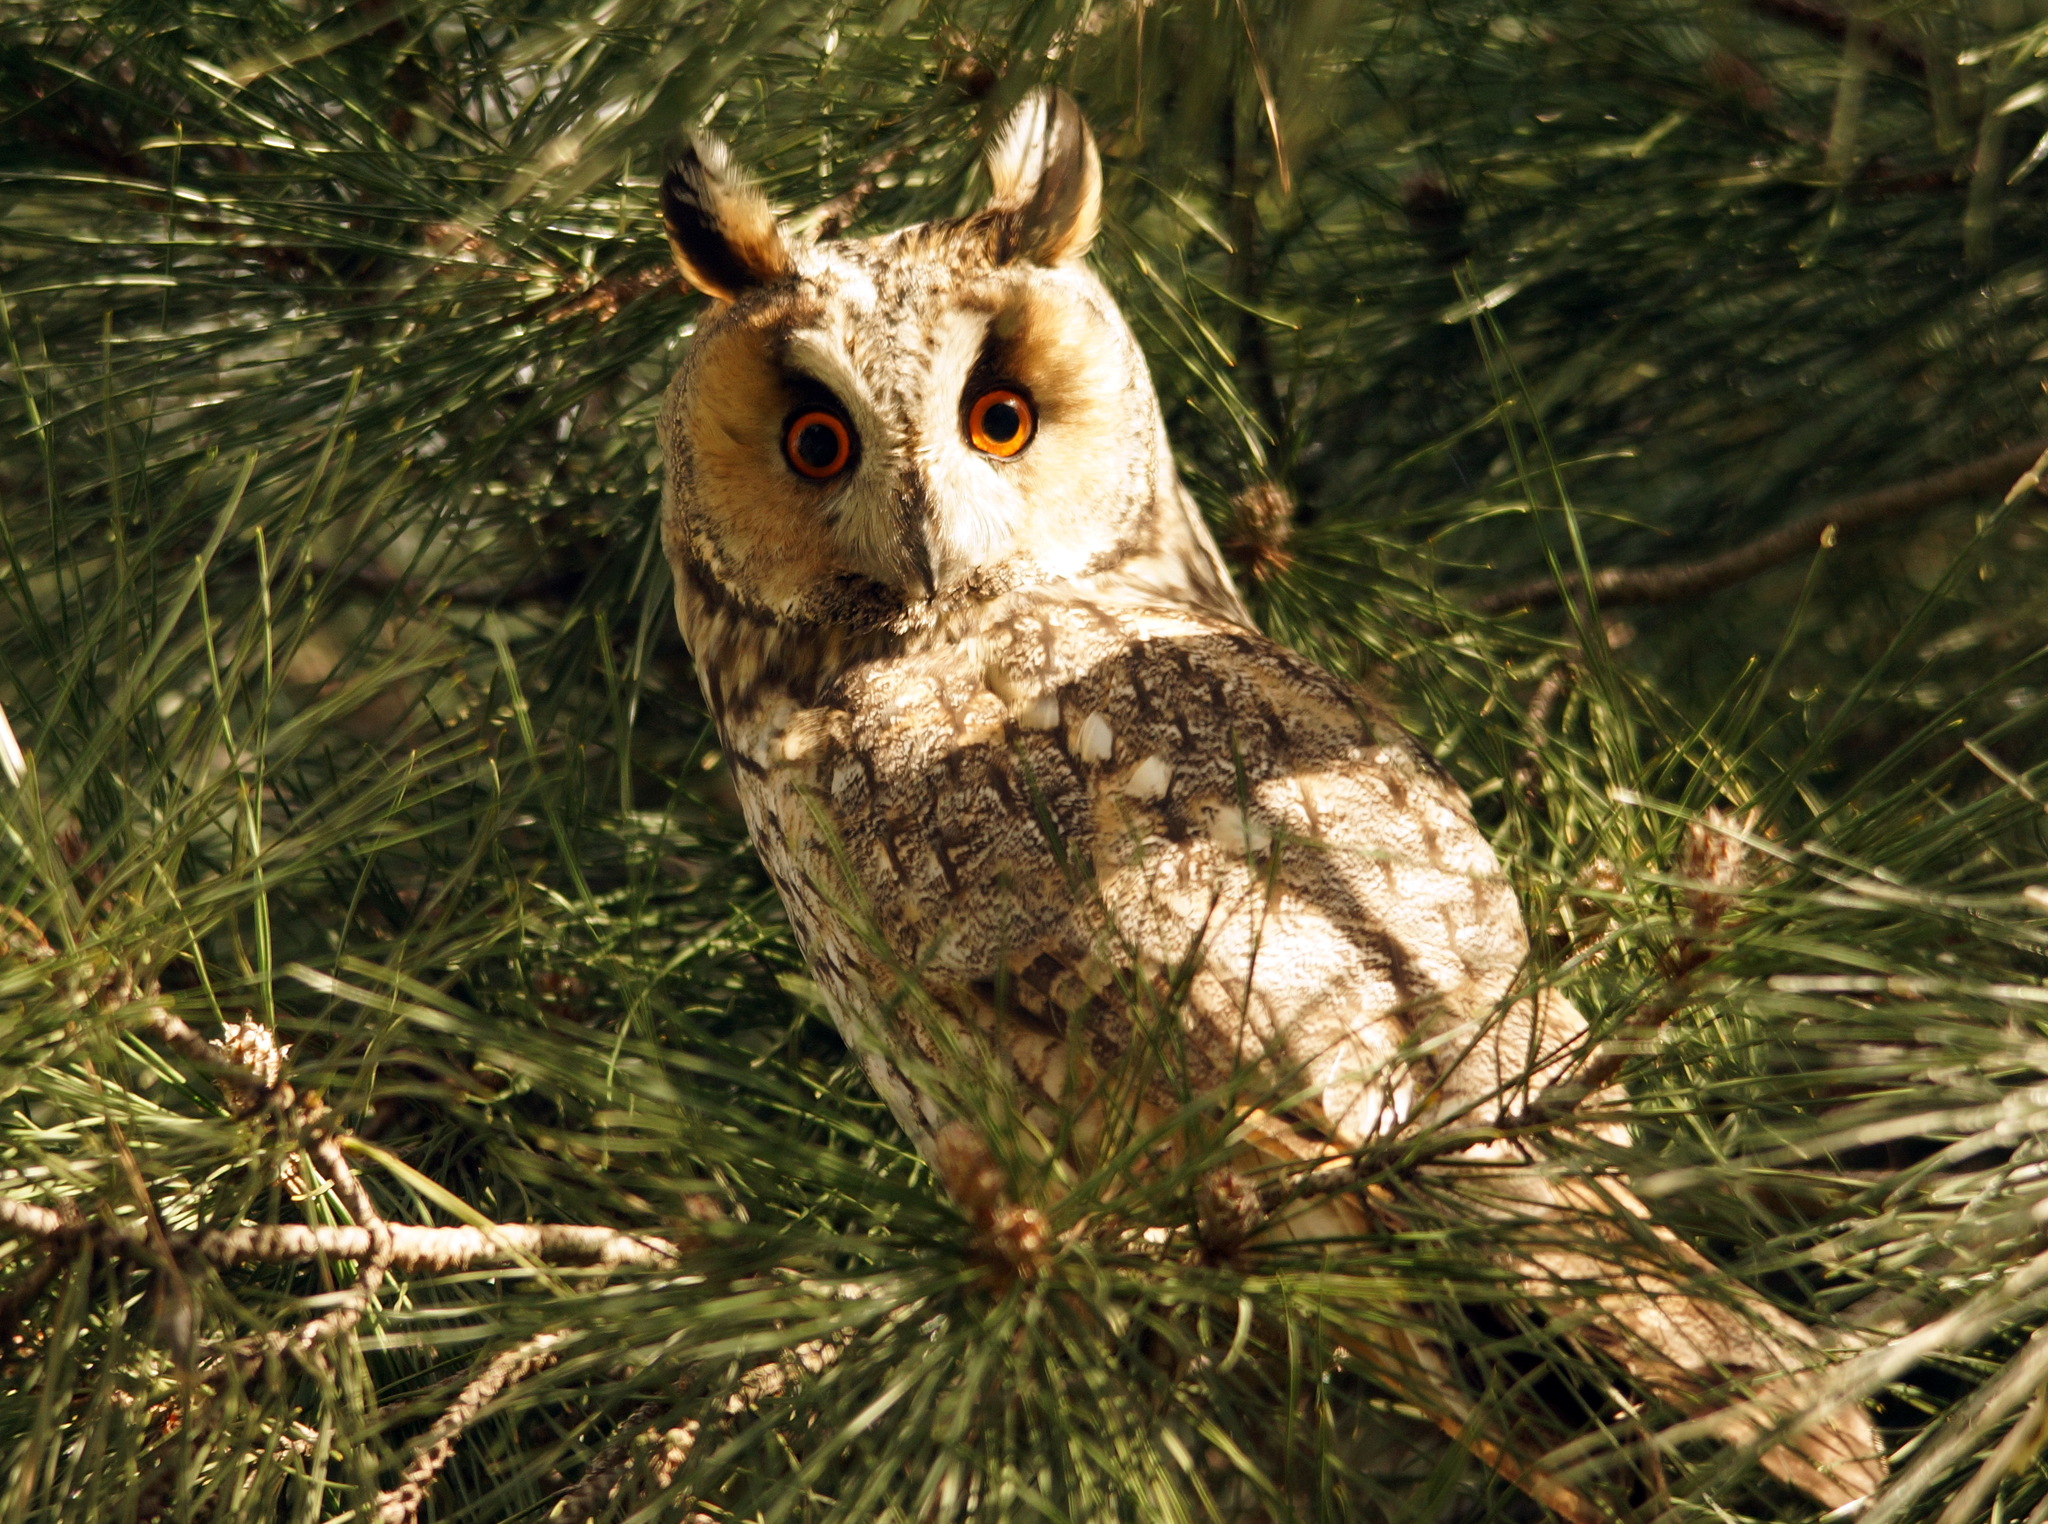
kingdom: Animalia
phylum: Chordata
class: Aves
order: Strigiformes
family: Strigidae
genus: Asio
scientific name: Asio otus
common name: Long-eared owl
